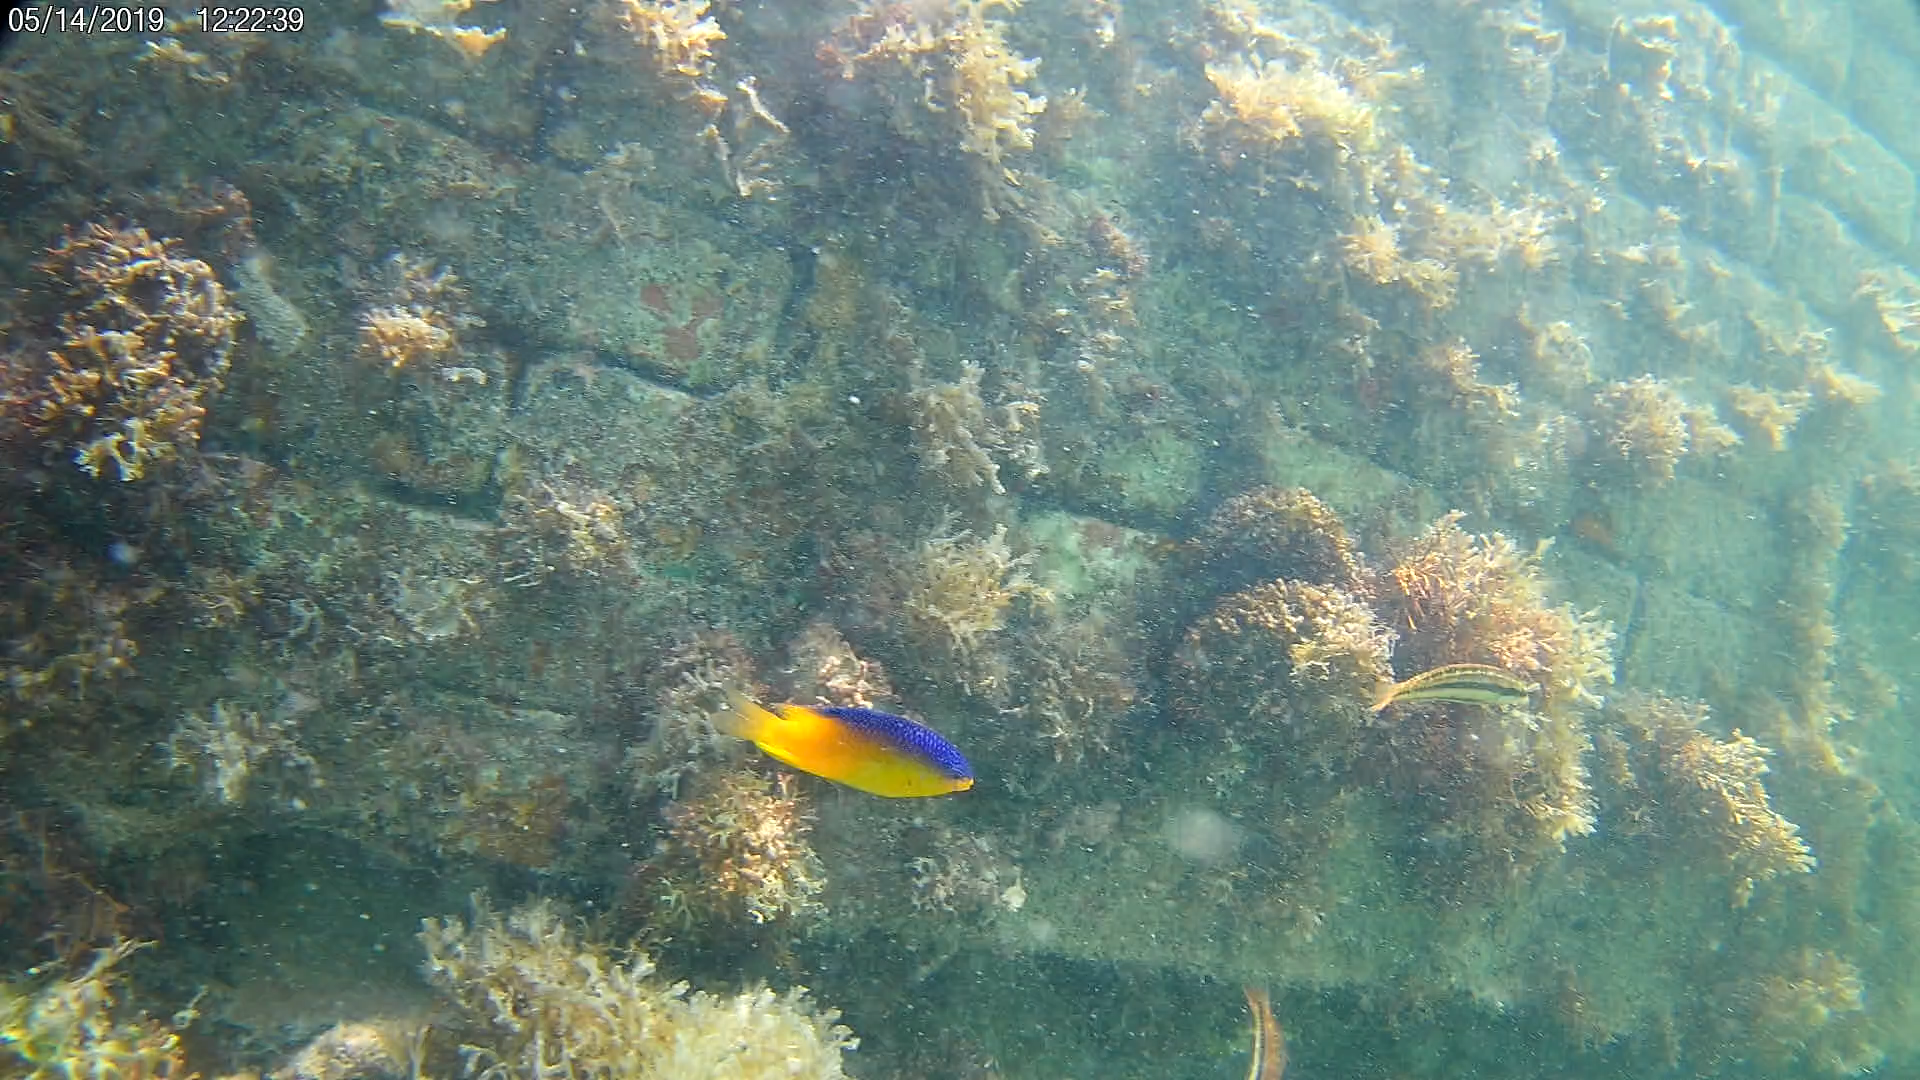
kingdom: Animalia
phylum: Chordata
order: Perciformes
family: Pomacentridae
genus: Stegastes
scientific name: Stegastes leucostictus
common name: Beaugregory
